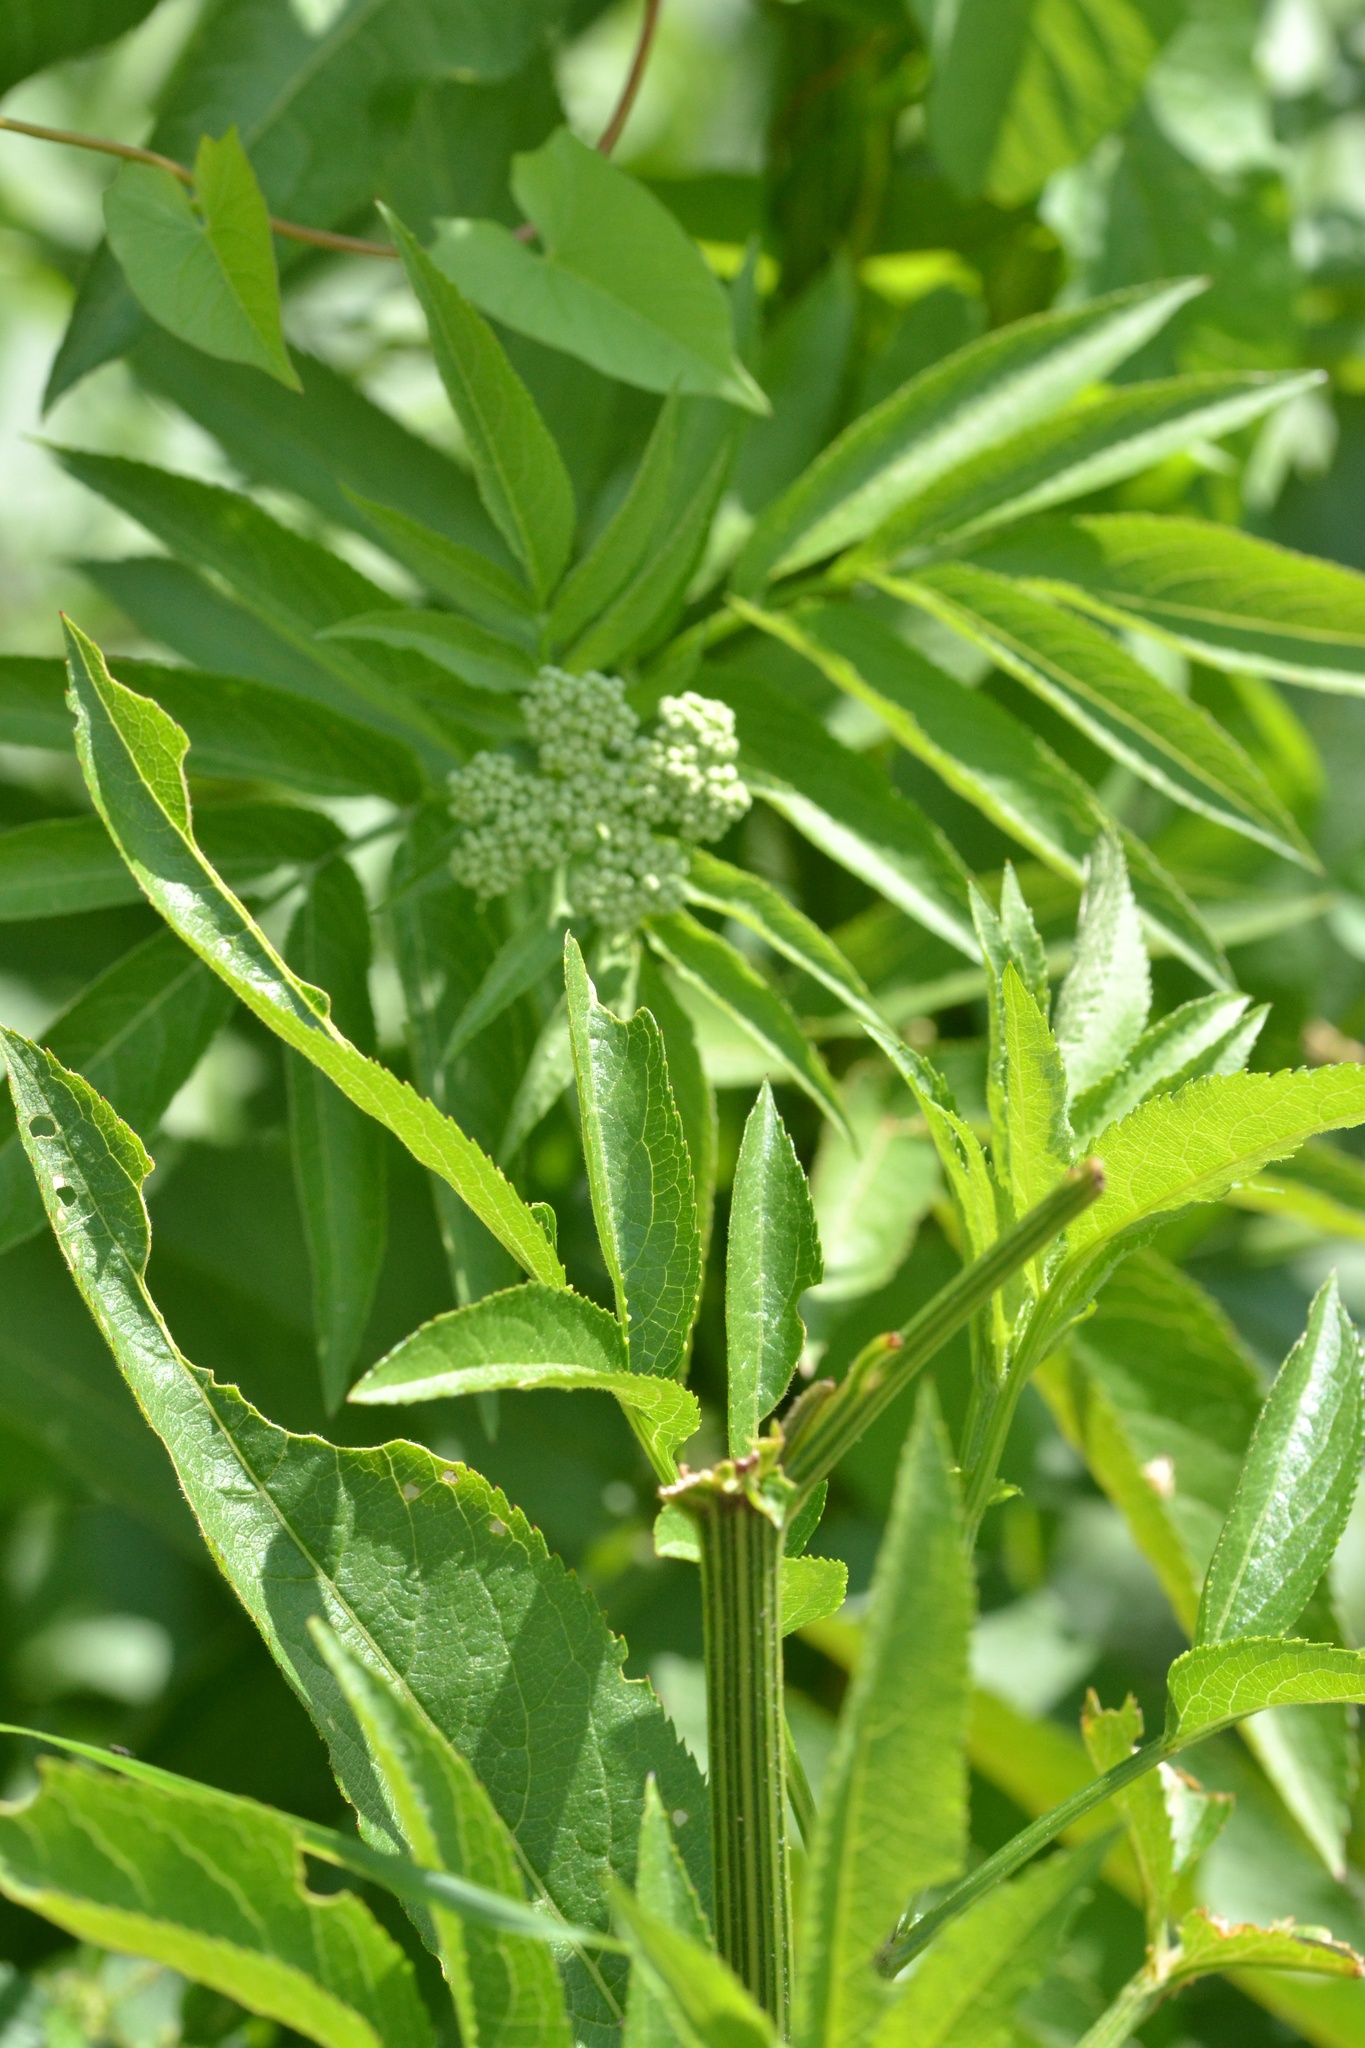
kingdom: Plantae
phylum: Tracheophyta
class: Magnoliopsida
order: Dipsacales
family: Viburnaceae
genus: Sambucus
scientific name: Sambucus ebulus
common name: Dwarf elder
